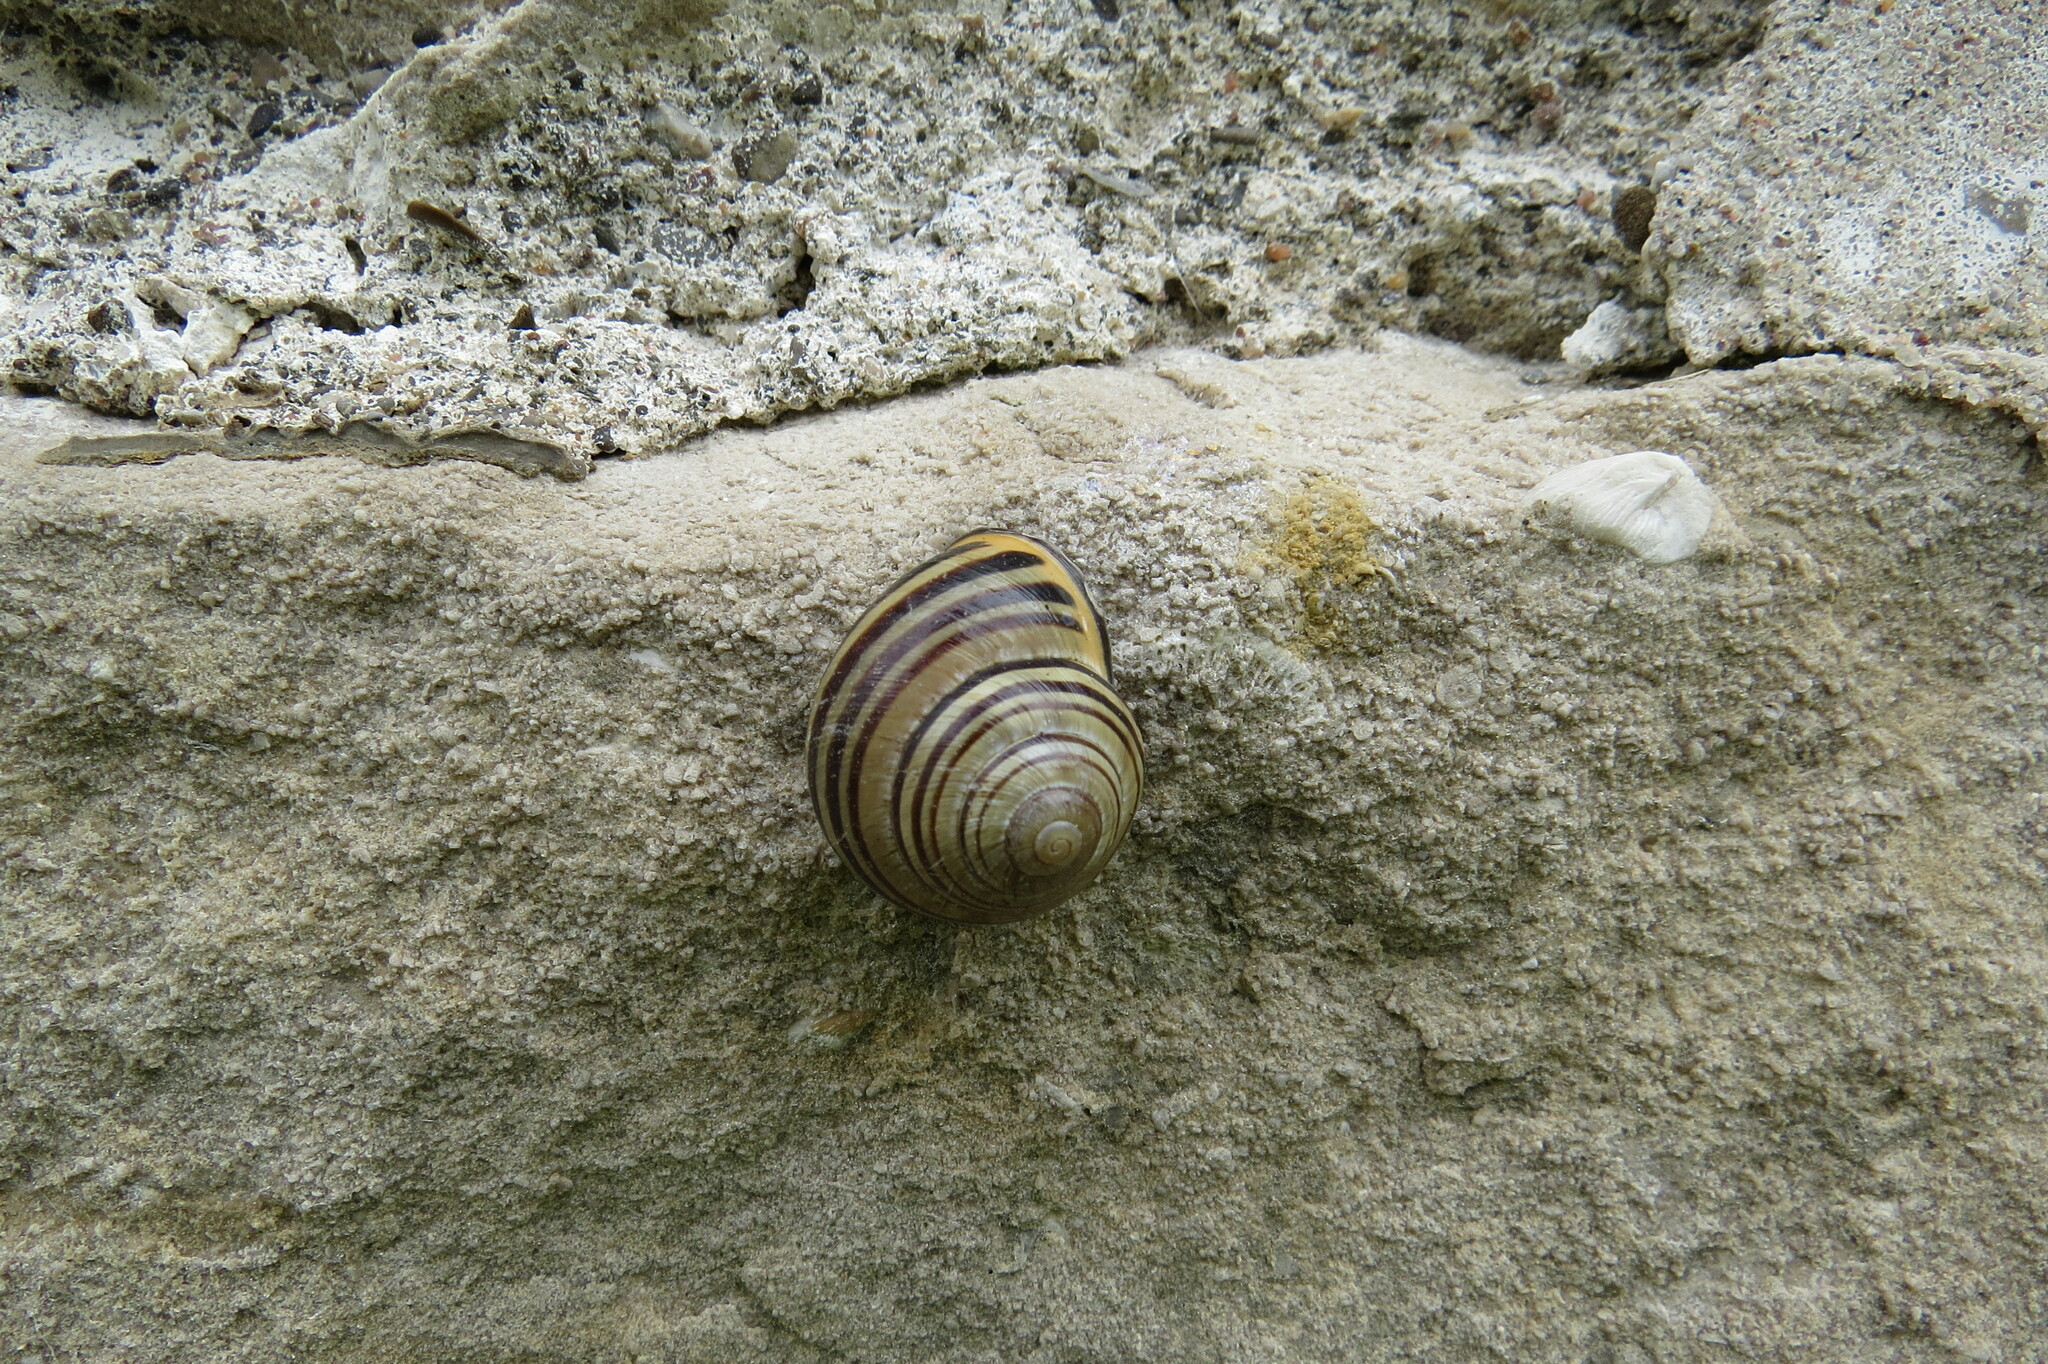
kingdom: Animalia
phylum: Mollusca
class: Gastropoda
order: Stylommatophora
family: Helicidae
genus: Cepaea
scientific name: Cepaea nemoralis
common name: Grovesnail
